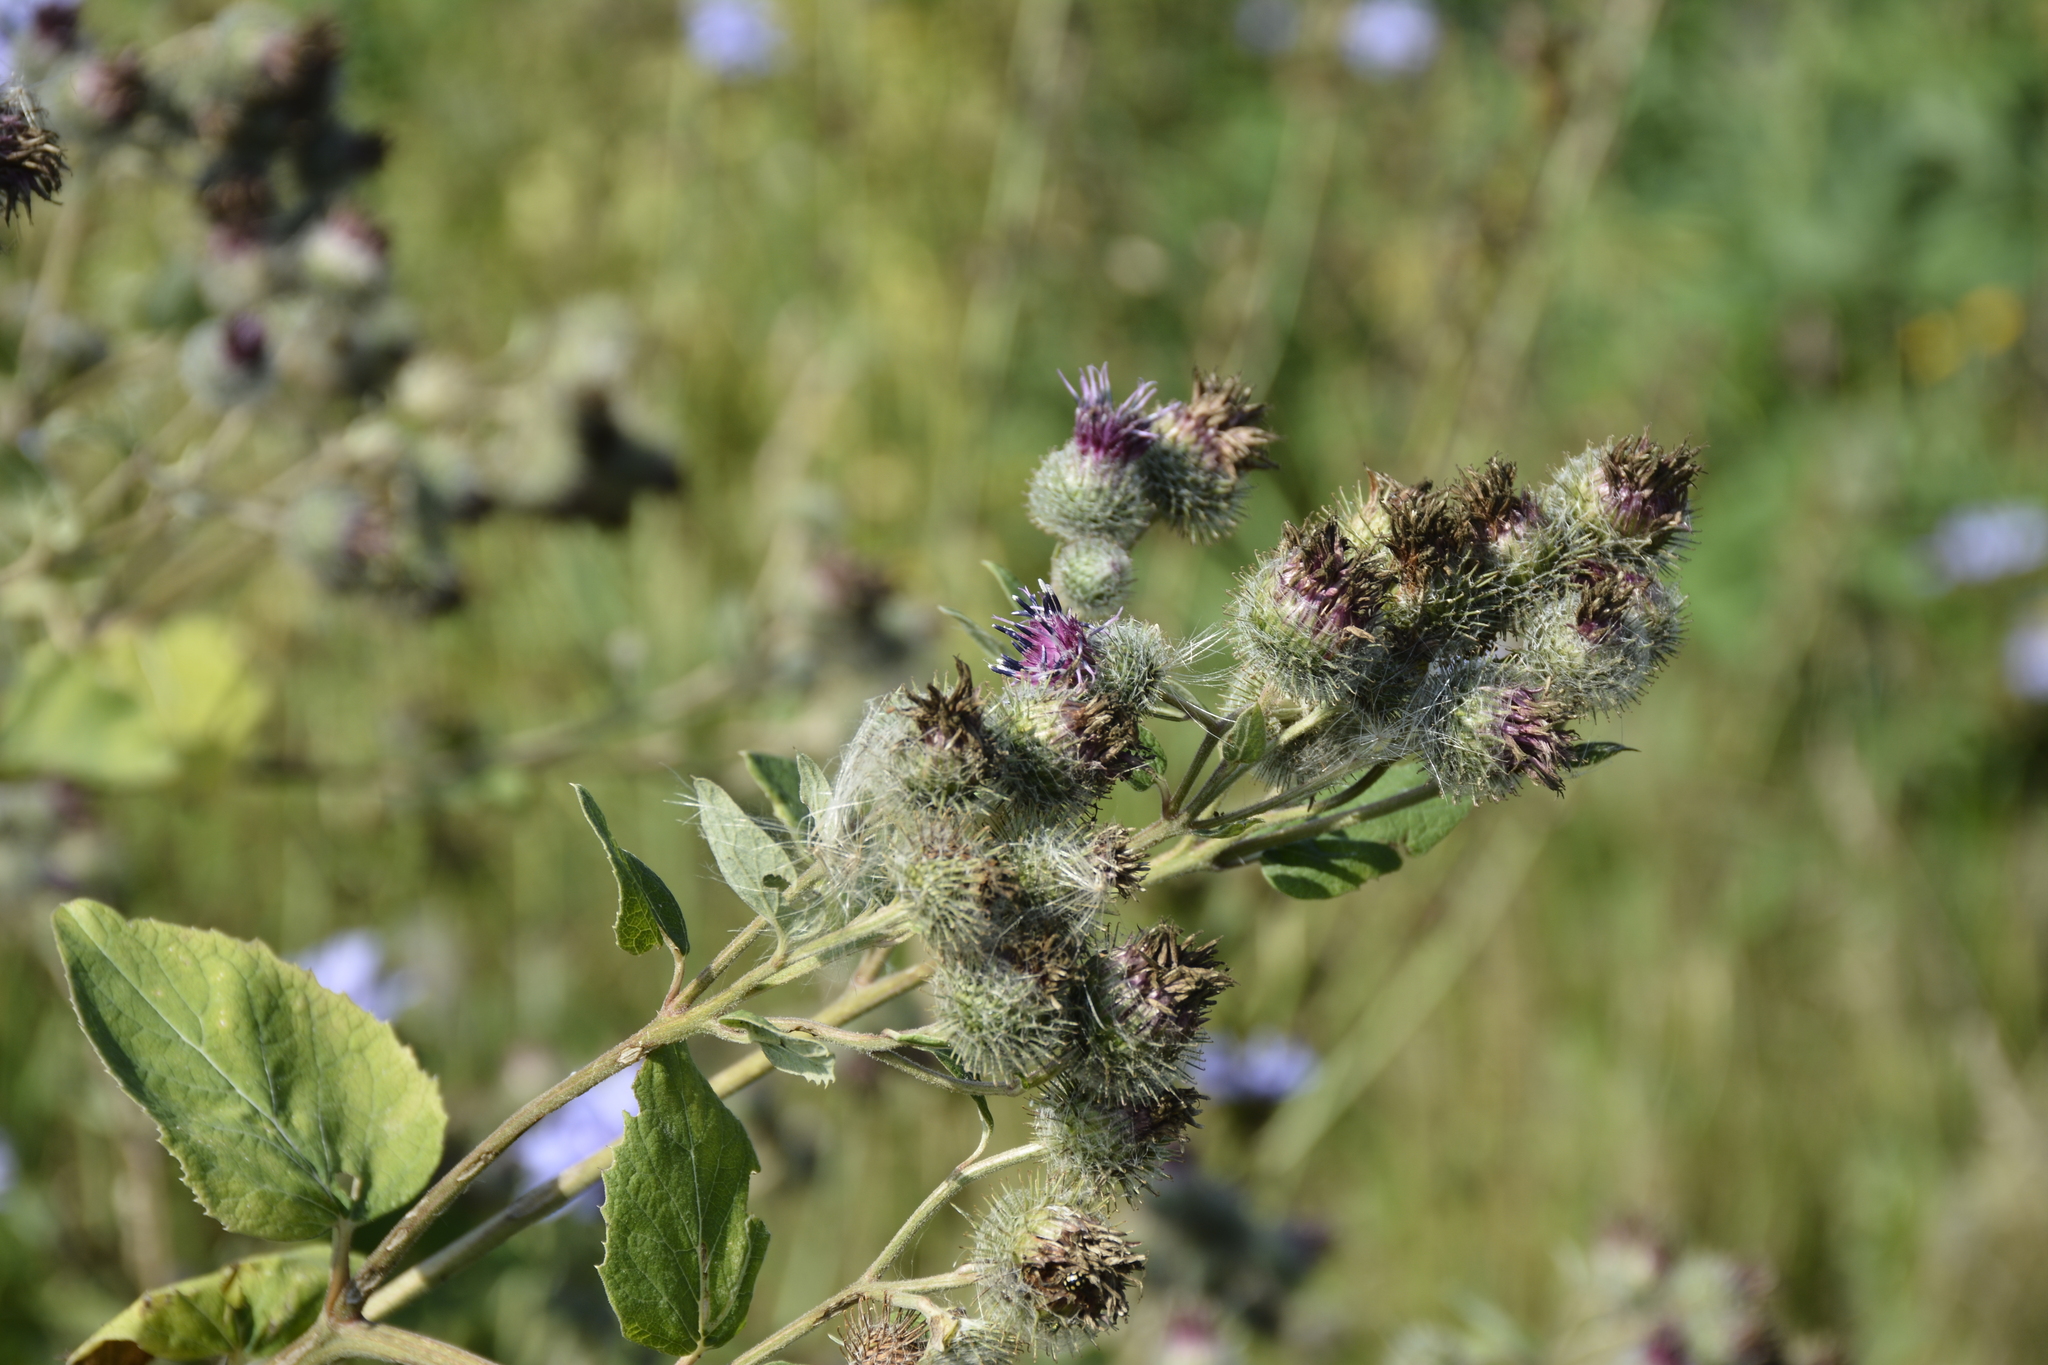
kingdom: Plantae
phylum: Tracheophyta
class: Magnoliopsida
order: Asterales
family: Asteraceae
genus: Arctium
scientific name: Arctium tomentosum
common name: Woolly burdock
